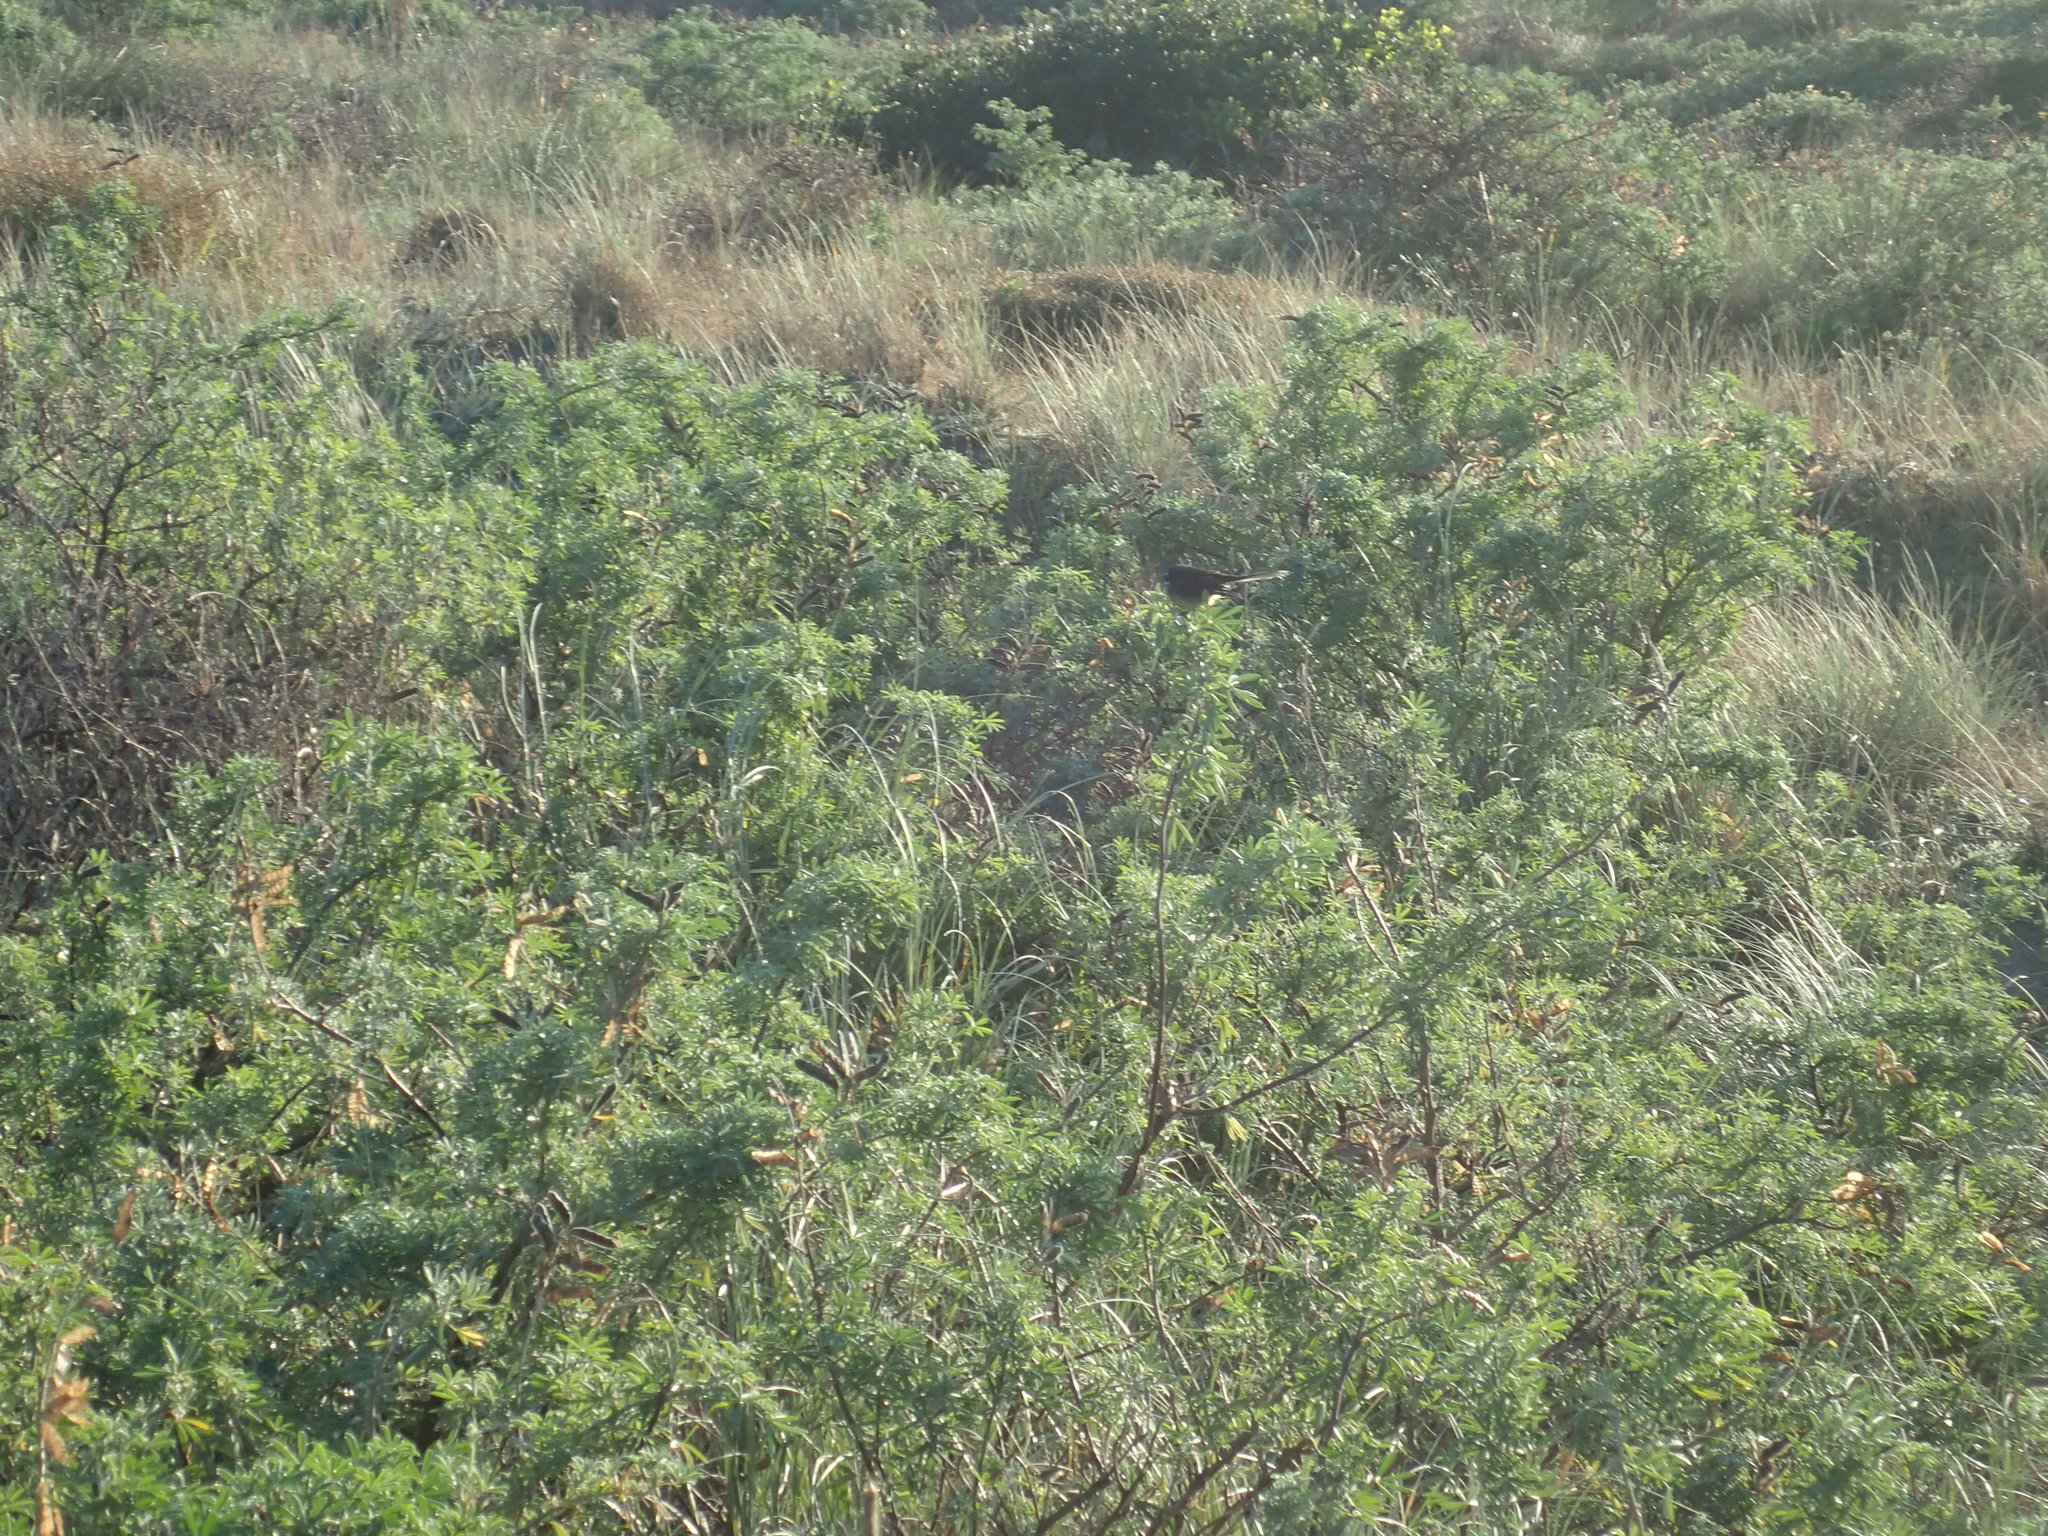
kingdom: Animalia
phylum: Chordata
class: Aves
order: Passeriformes
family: Rhipiduridae
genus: Rhipidura
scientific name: Rhipidura fuliginosa
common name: New zealand fantail
